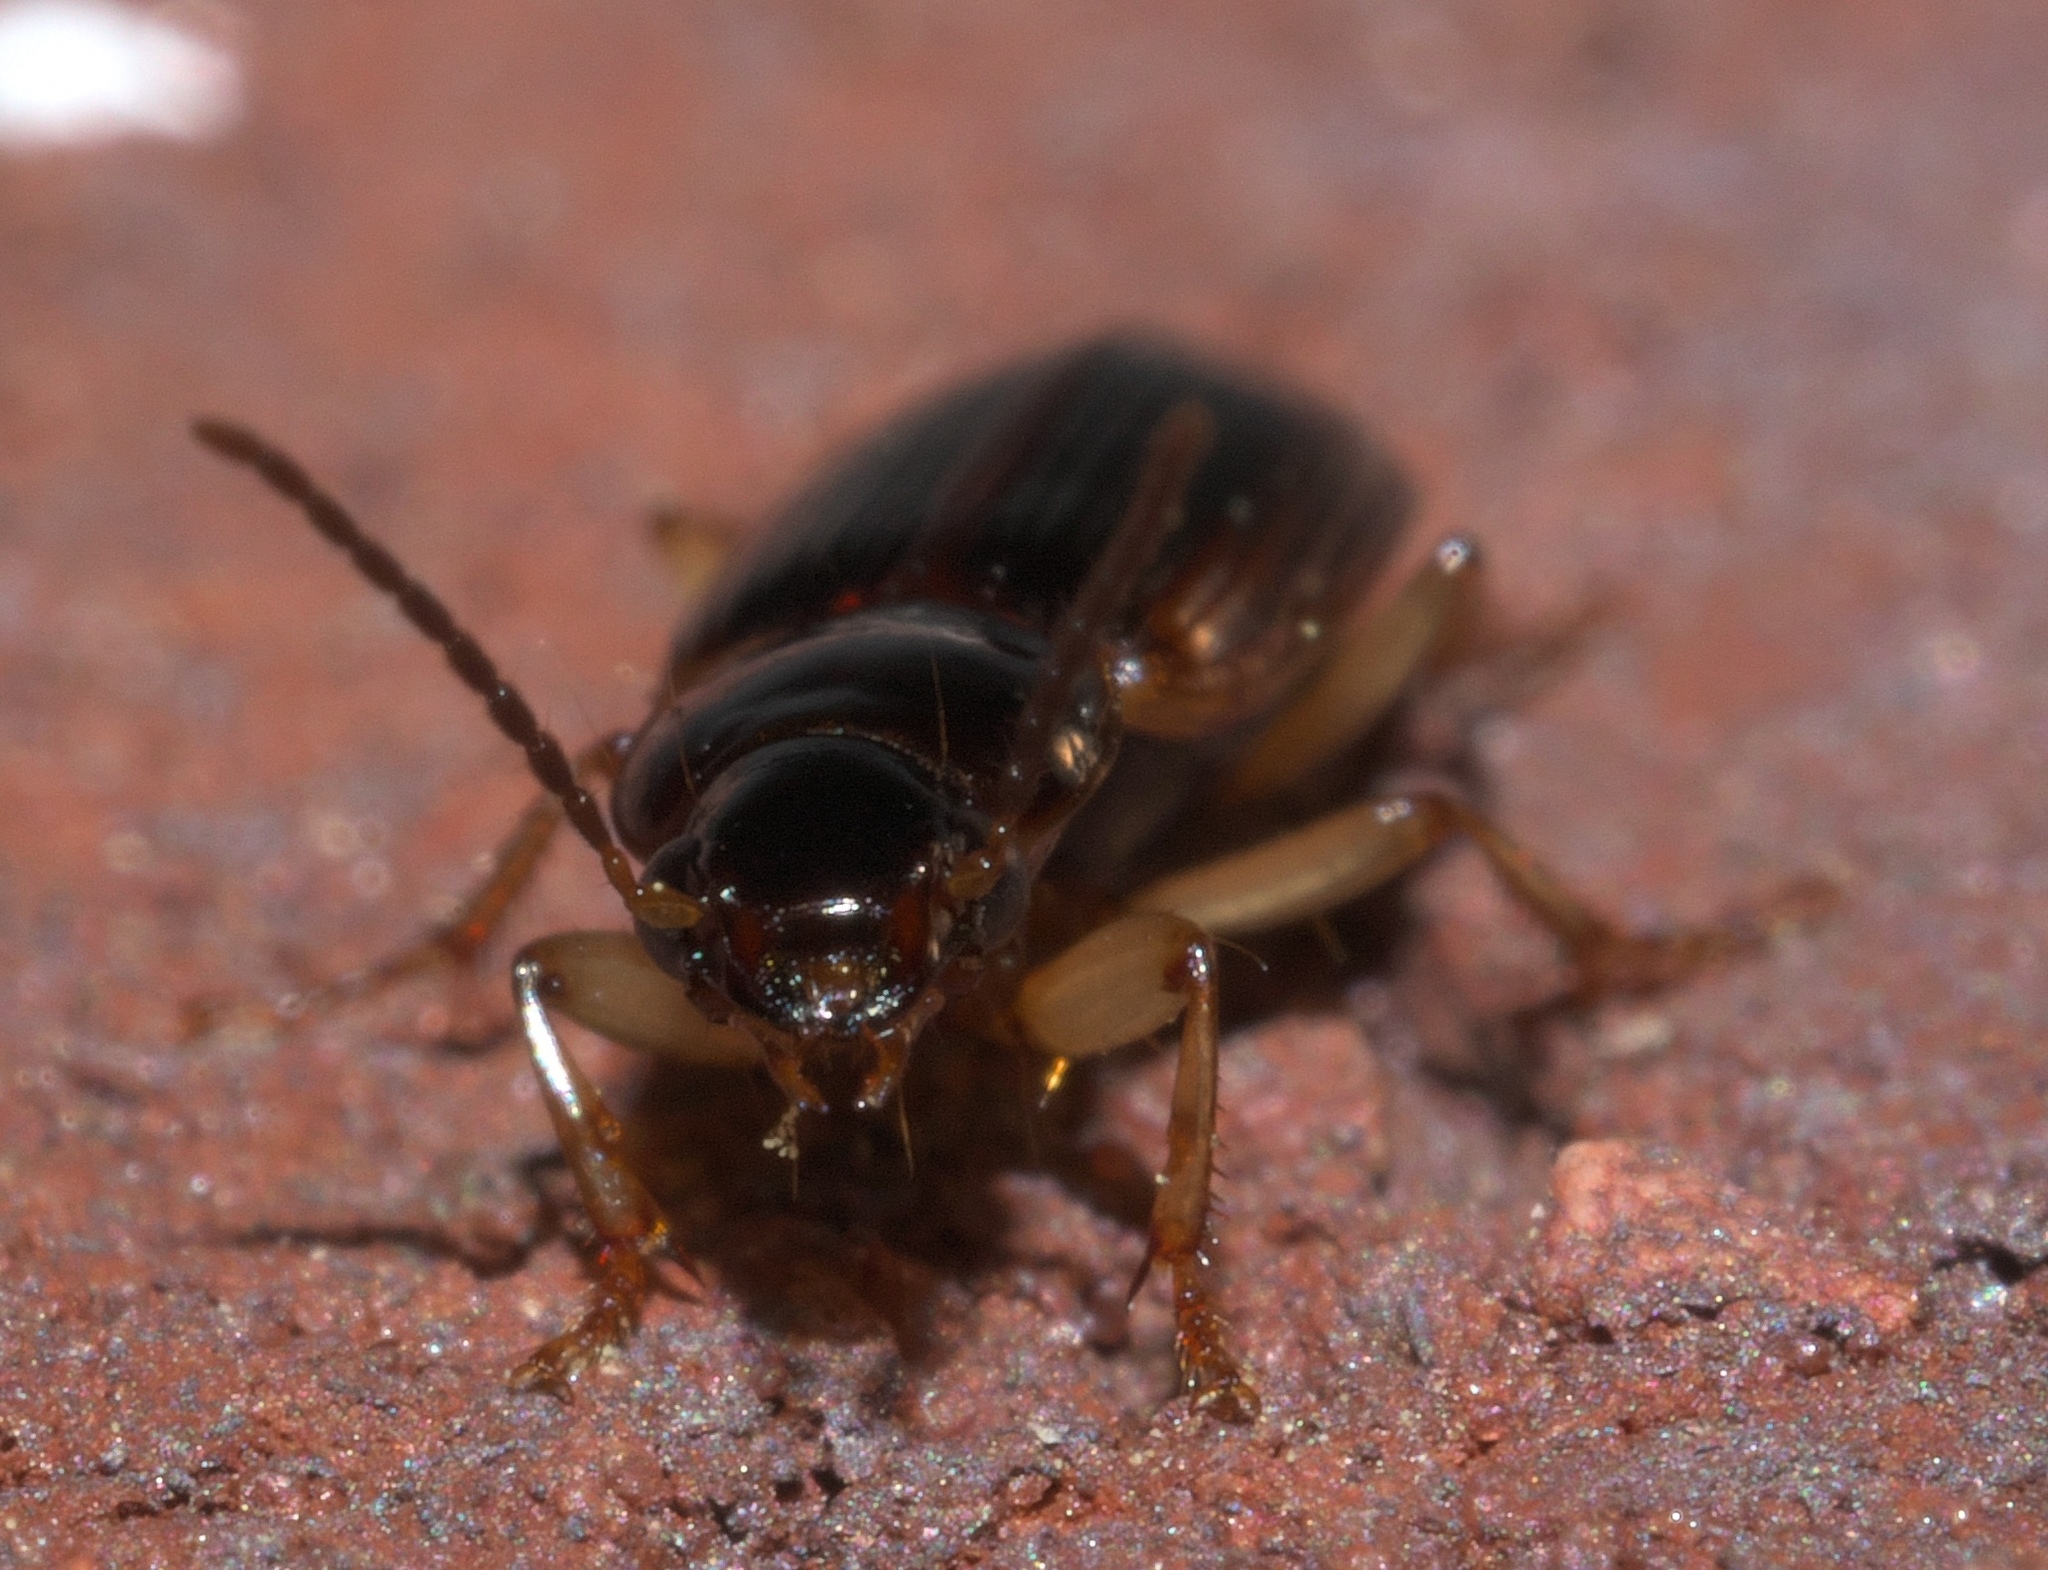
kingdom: Animalia
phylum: Arthropoda
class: Insecta
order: Coleoptera
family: Carabidae
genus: Stenolophus
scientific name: Stenolophus ochropezus
